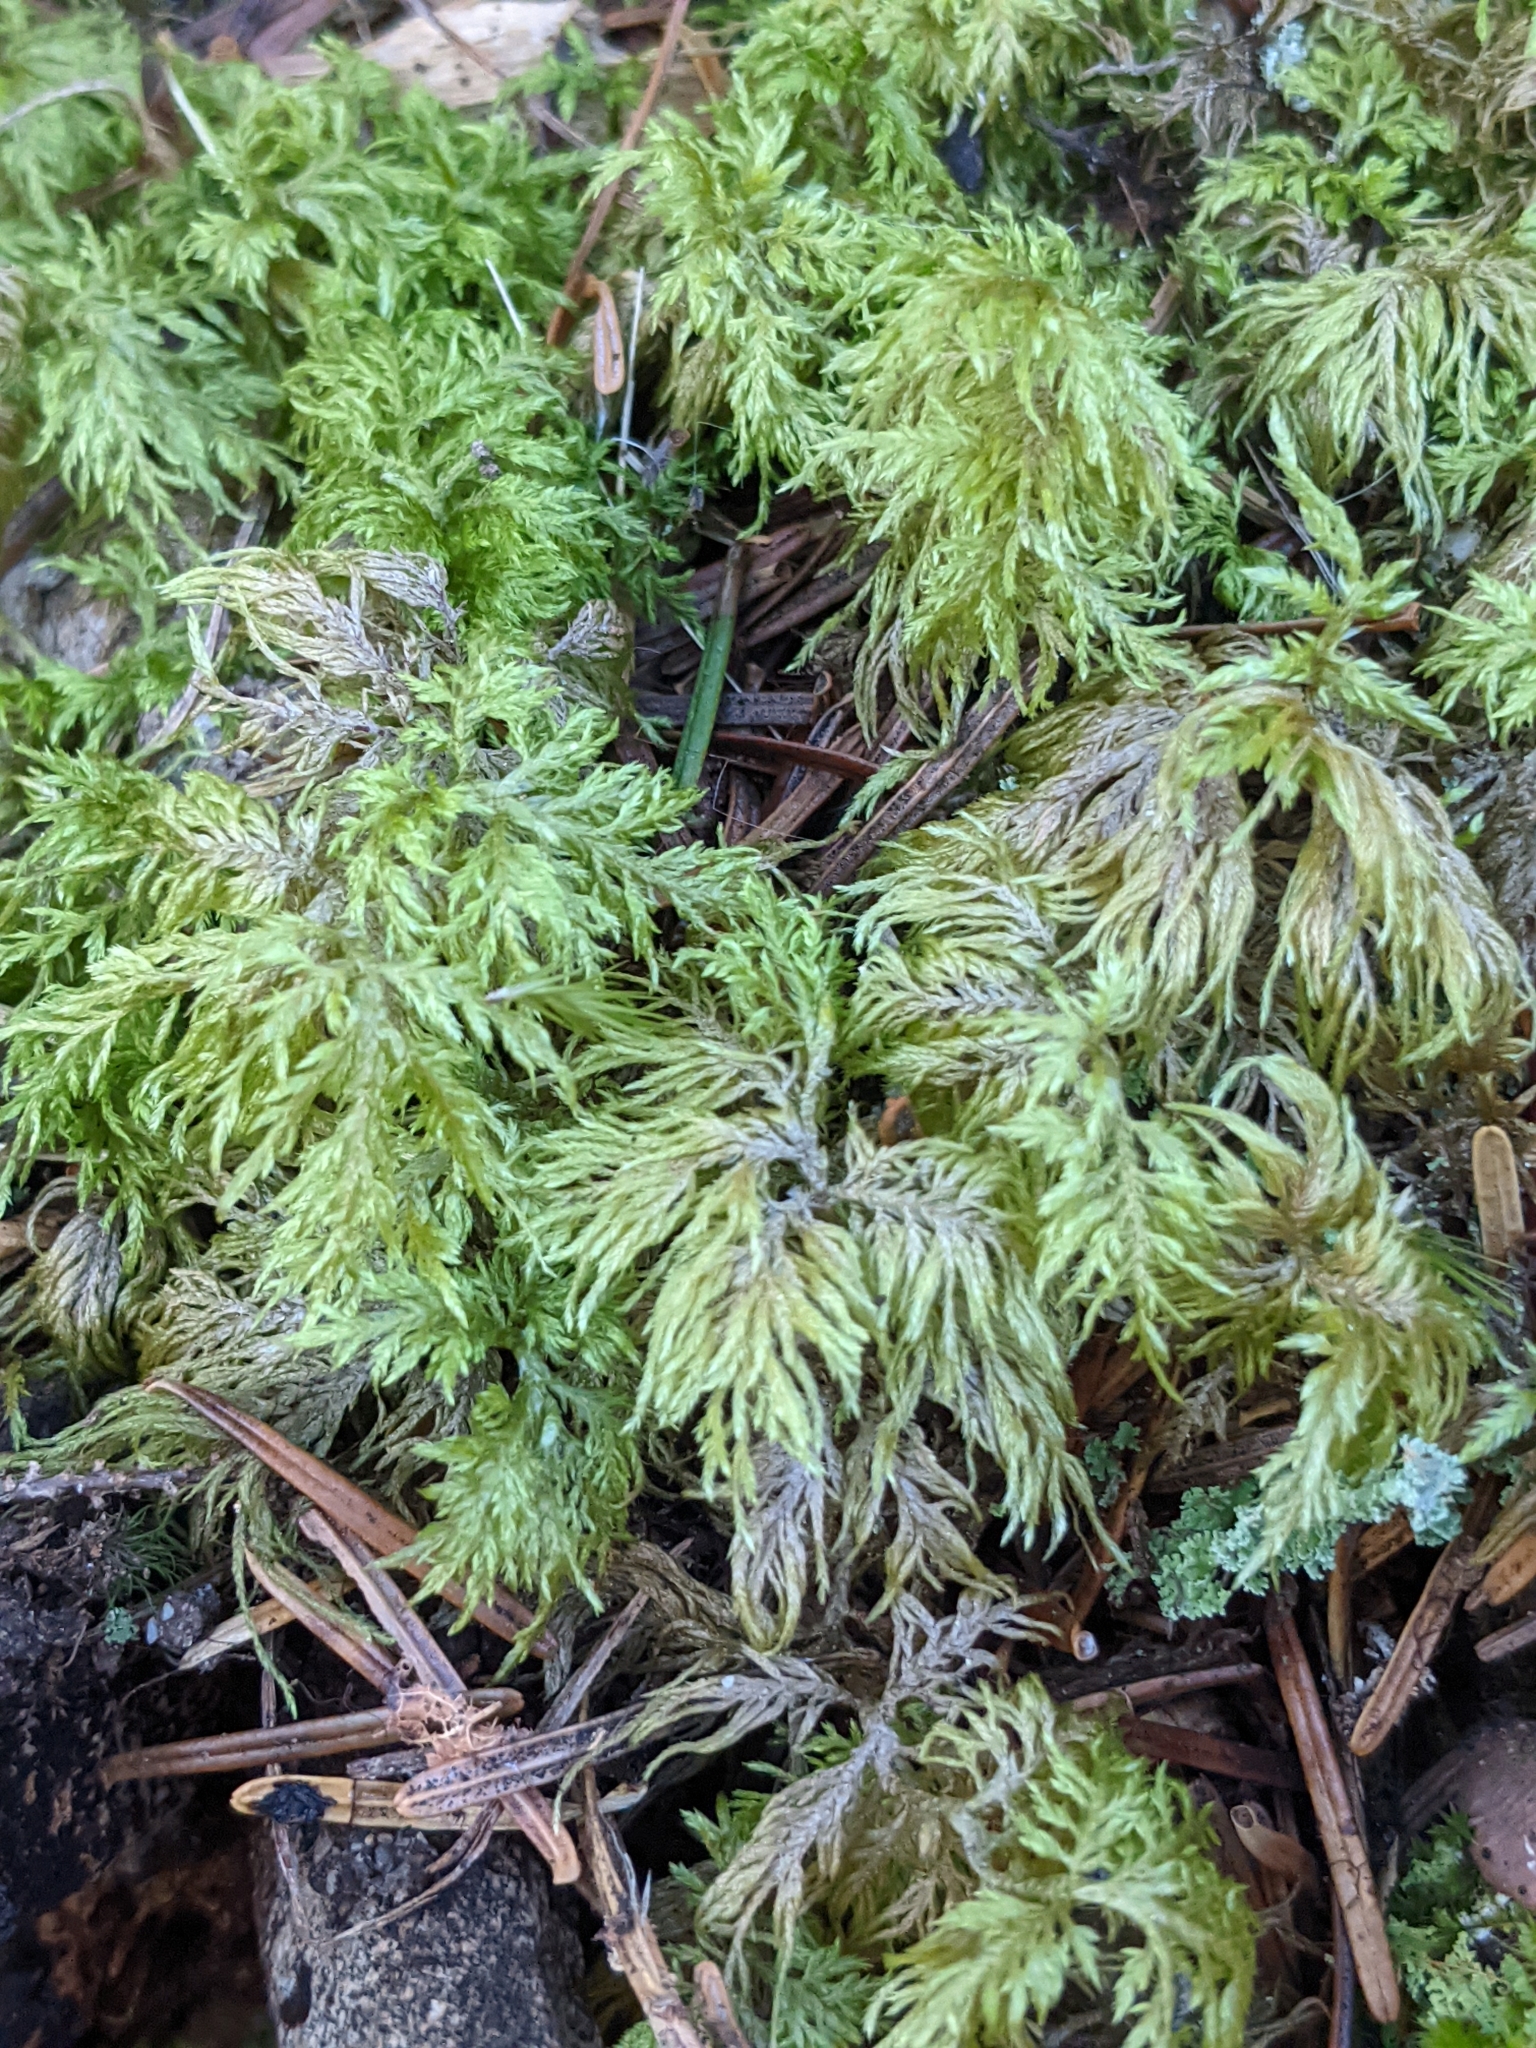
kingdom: Plantae
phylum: Bryophyta
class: Bryopsida
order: Hypnales
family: Hylocomiaceae
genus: Hylocomium
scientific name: Hylocomium splendens
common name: Stairstep moss
